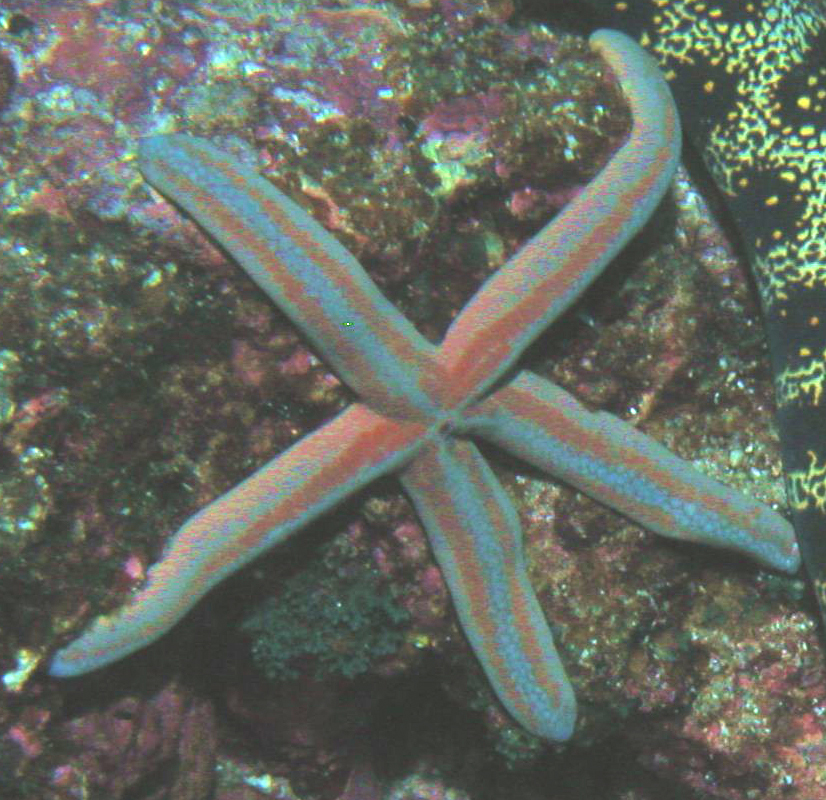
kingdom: Animalia
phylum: Echinodermata
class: Asteroidea
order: Valvatida
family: Ophidiasteridae
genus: Phataria
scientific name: Phataria unifascialis
